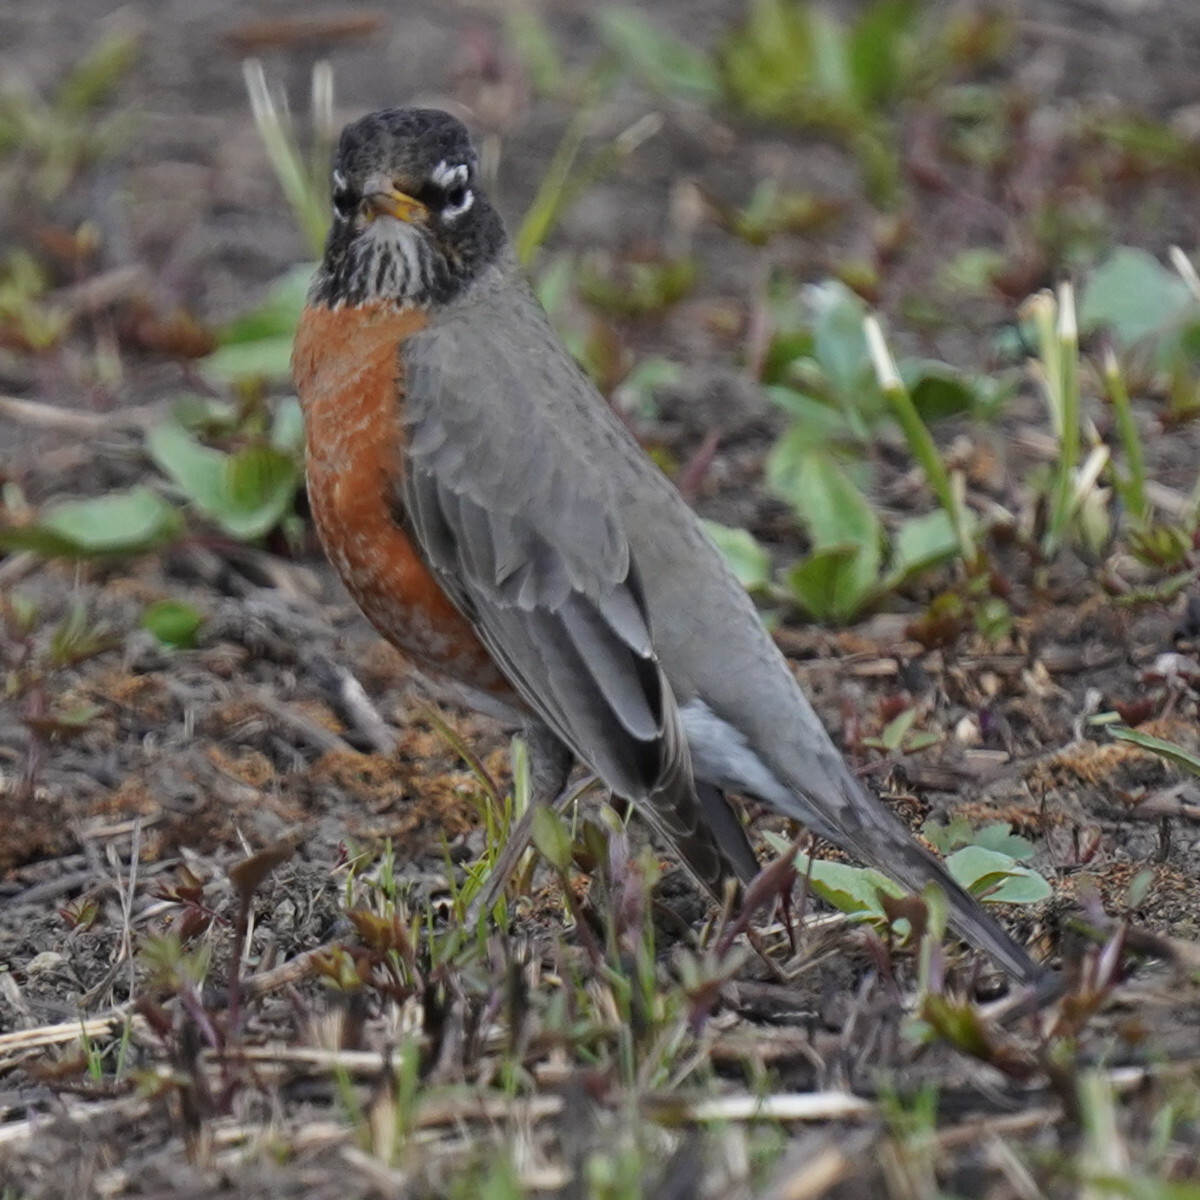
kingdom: Animalia
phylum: Chordata
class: Aves
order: Passeriformes
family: Turdidae
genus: Turdus
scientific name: Turdus migratorius
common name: American robin
